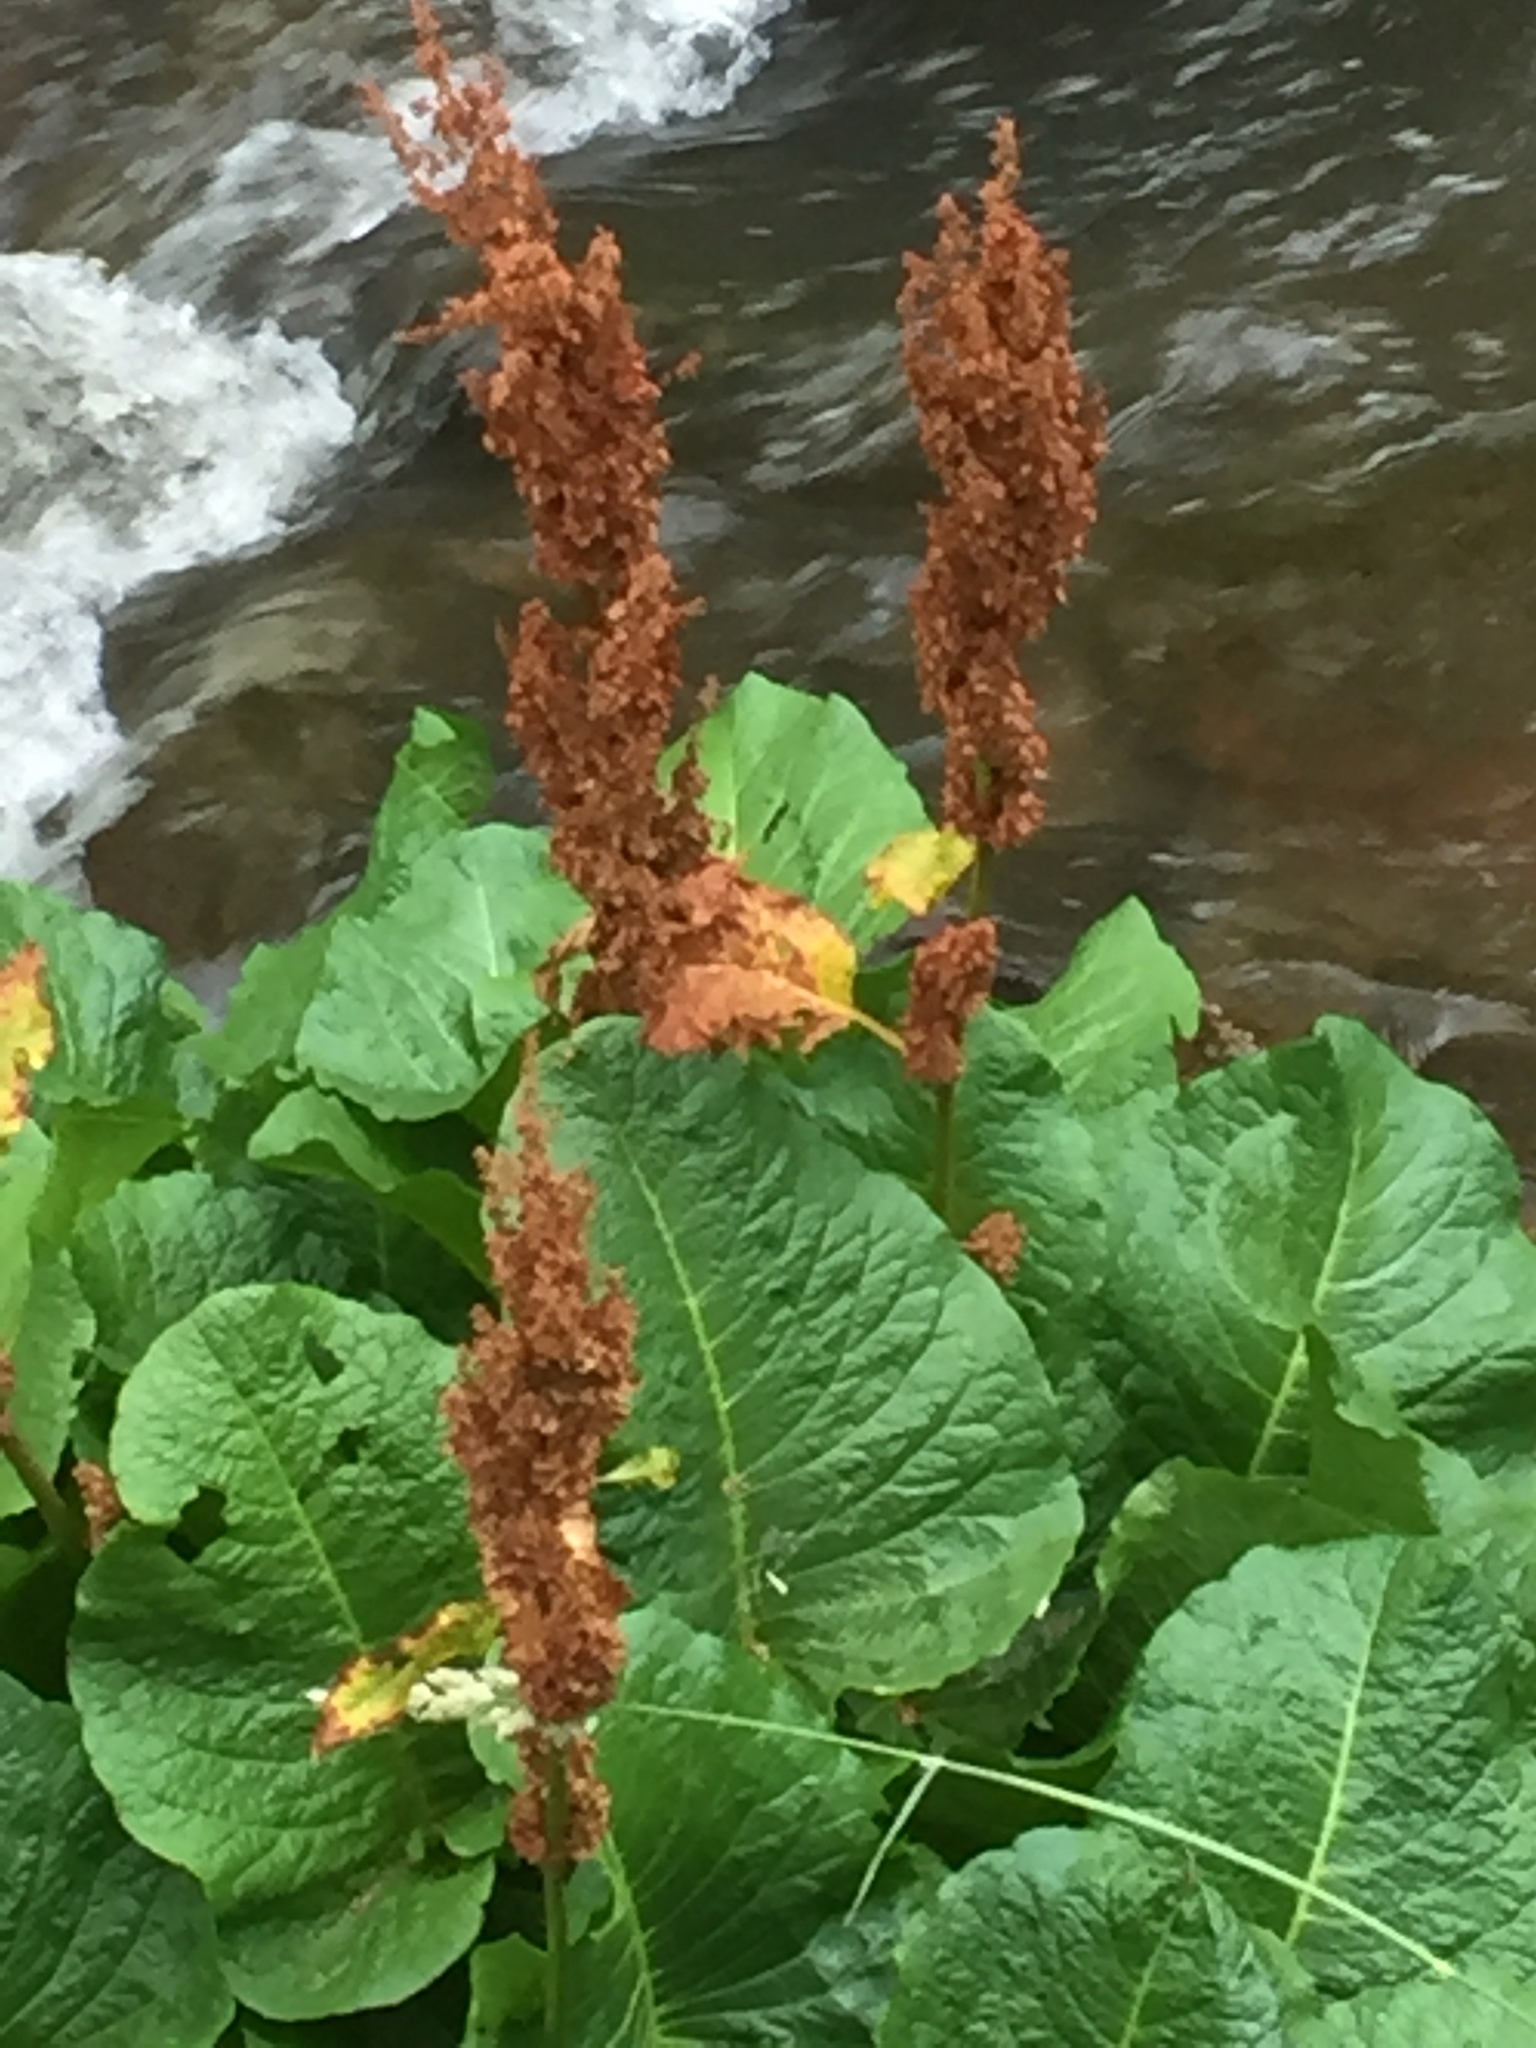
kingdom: Plantae
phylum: Tracheophyta
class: Magnoliopsida
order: Caryophyllales
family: Polygonaceae
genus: Rumex
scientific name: Rumex alpinus
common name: Alpine dock
